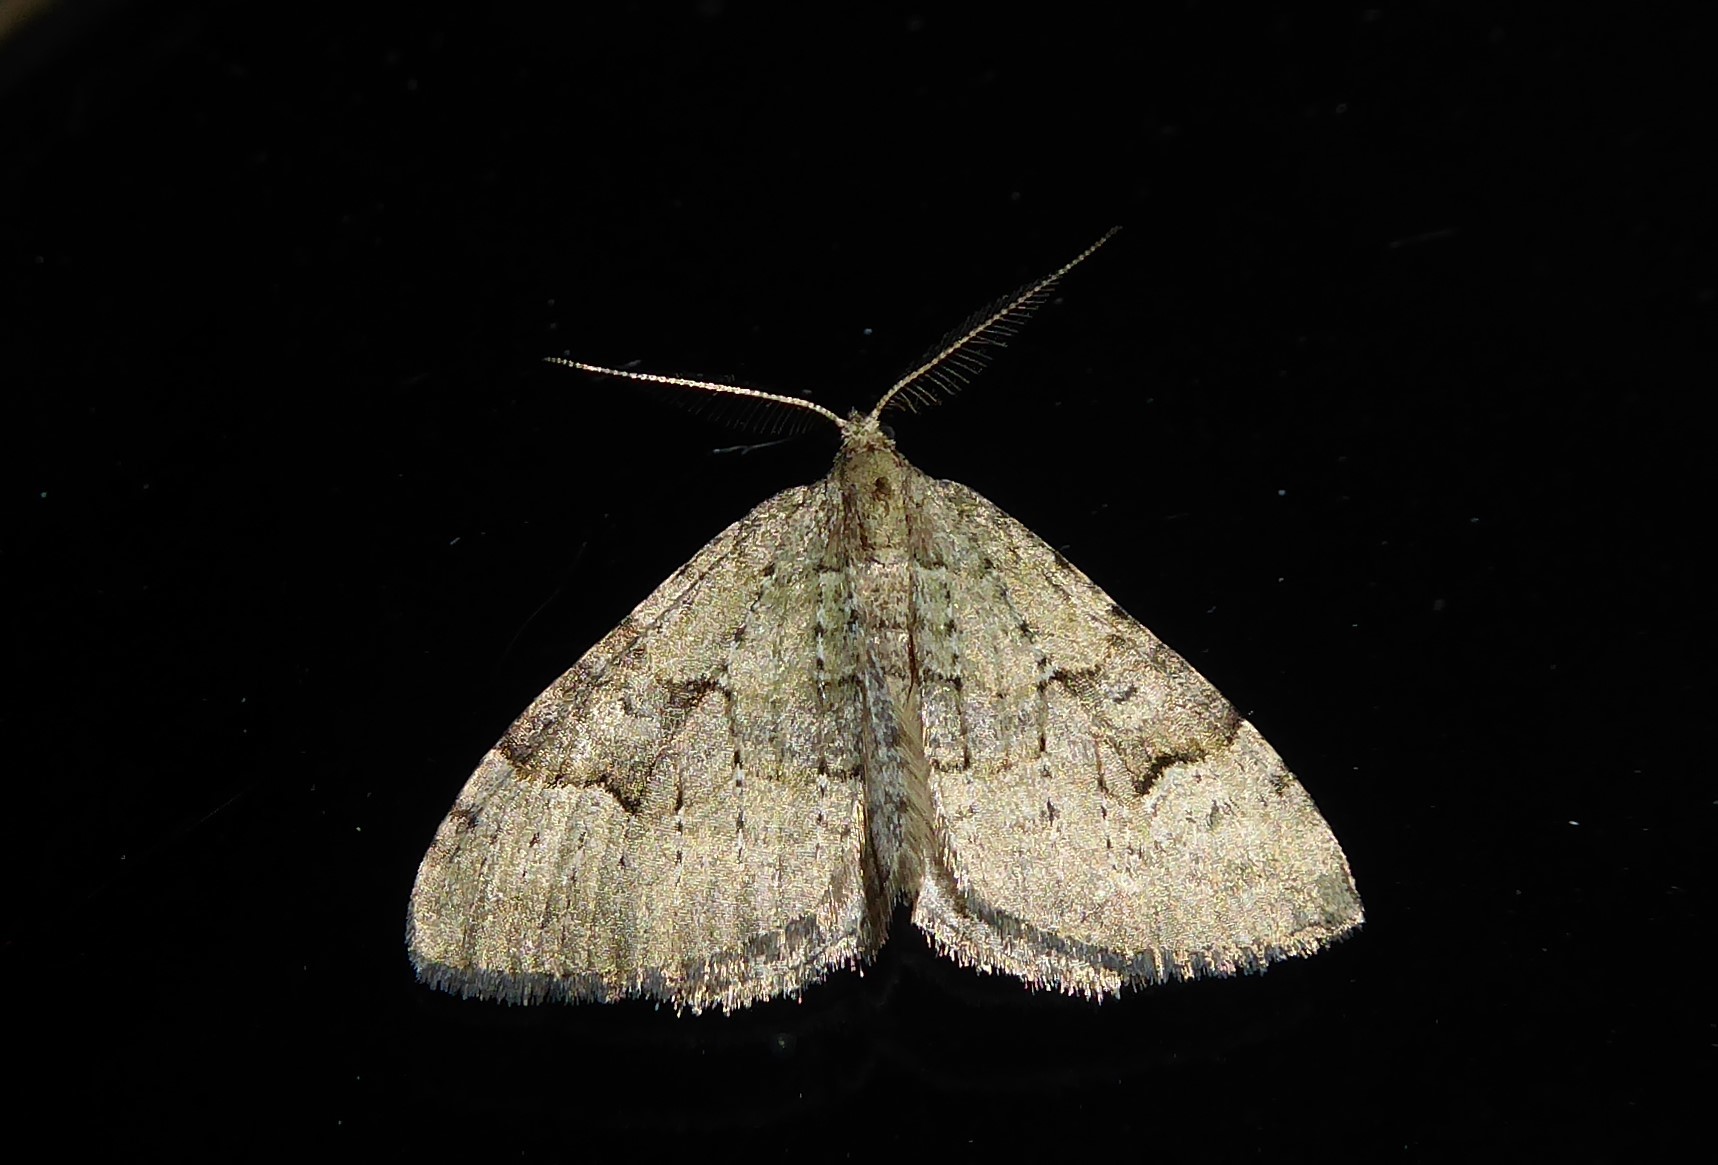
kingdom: Animalia
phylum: Arthropoda
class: Insecta
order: Lepidoptera
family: Geometridae
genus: Epyaxa
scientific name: Epyaxa rosearia
